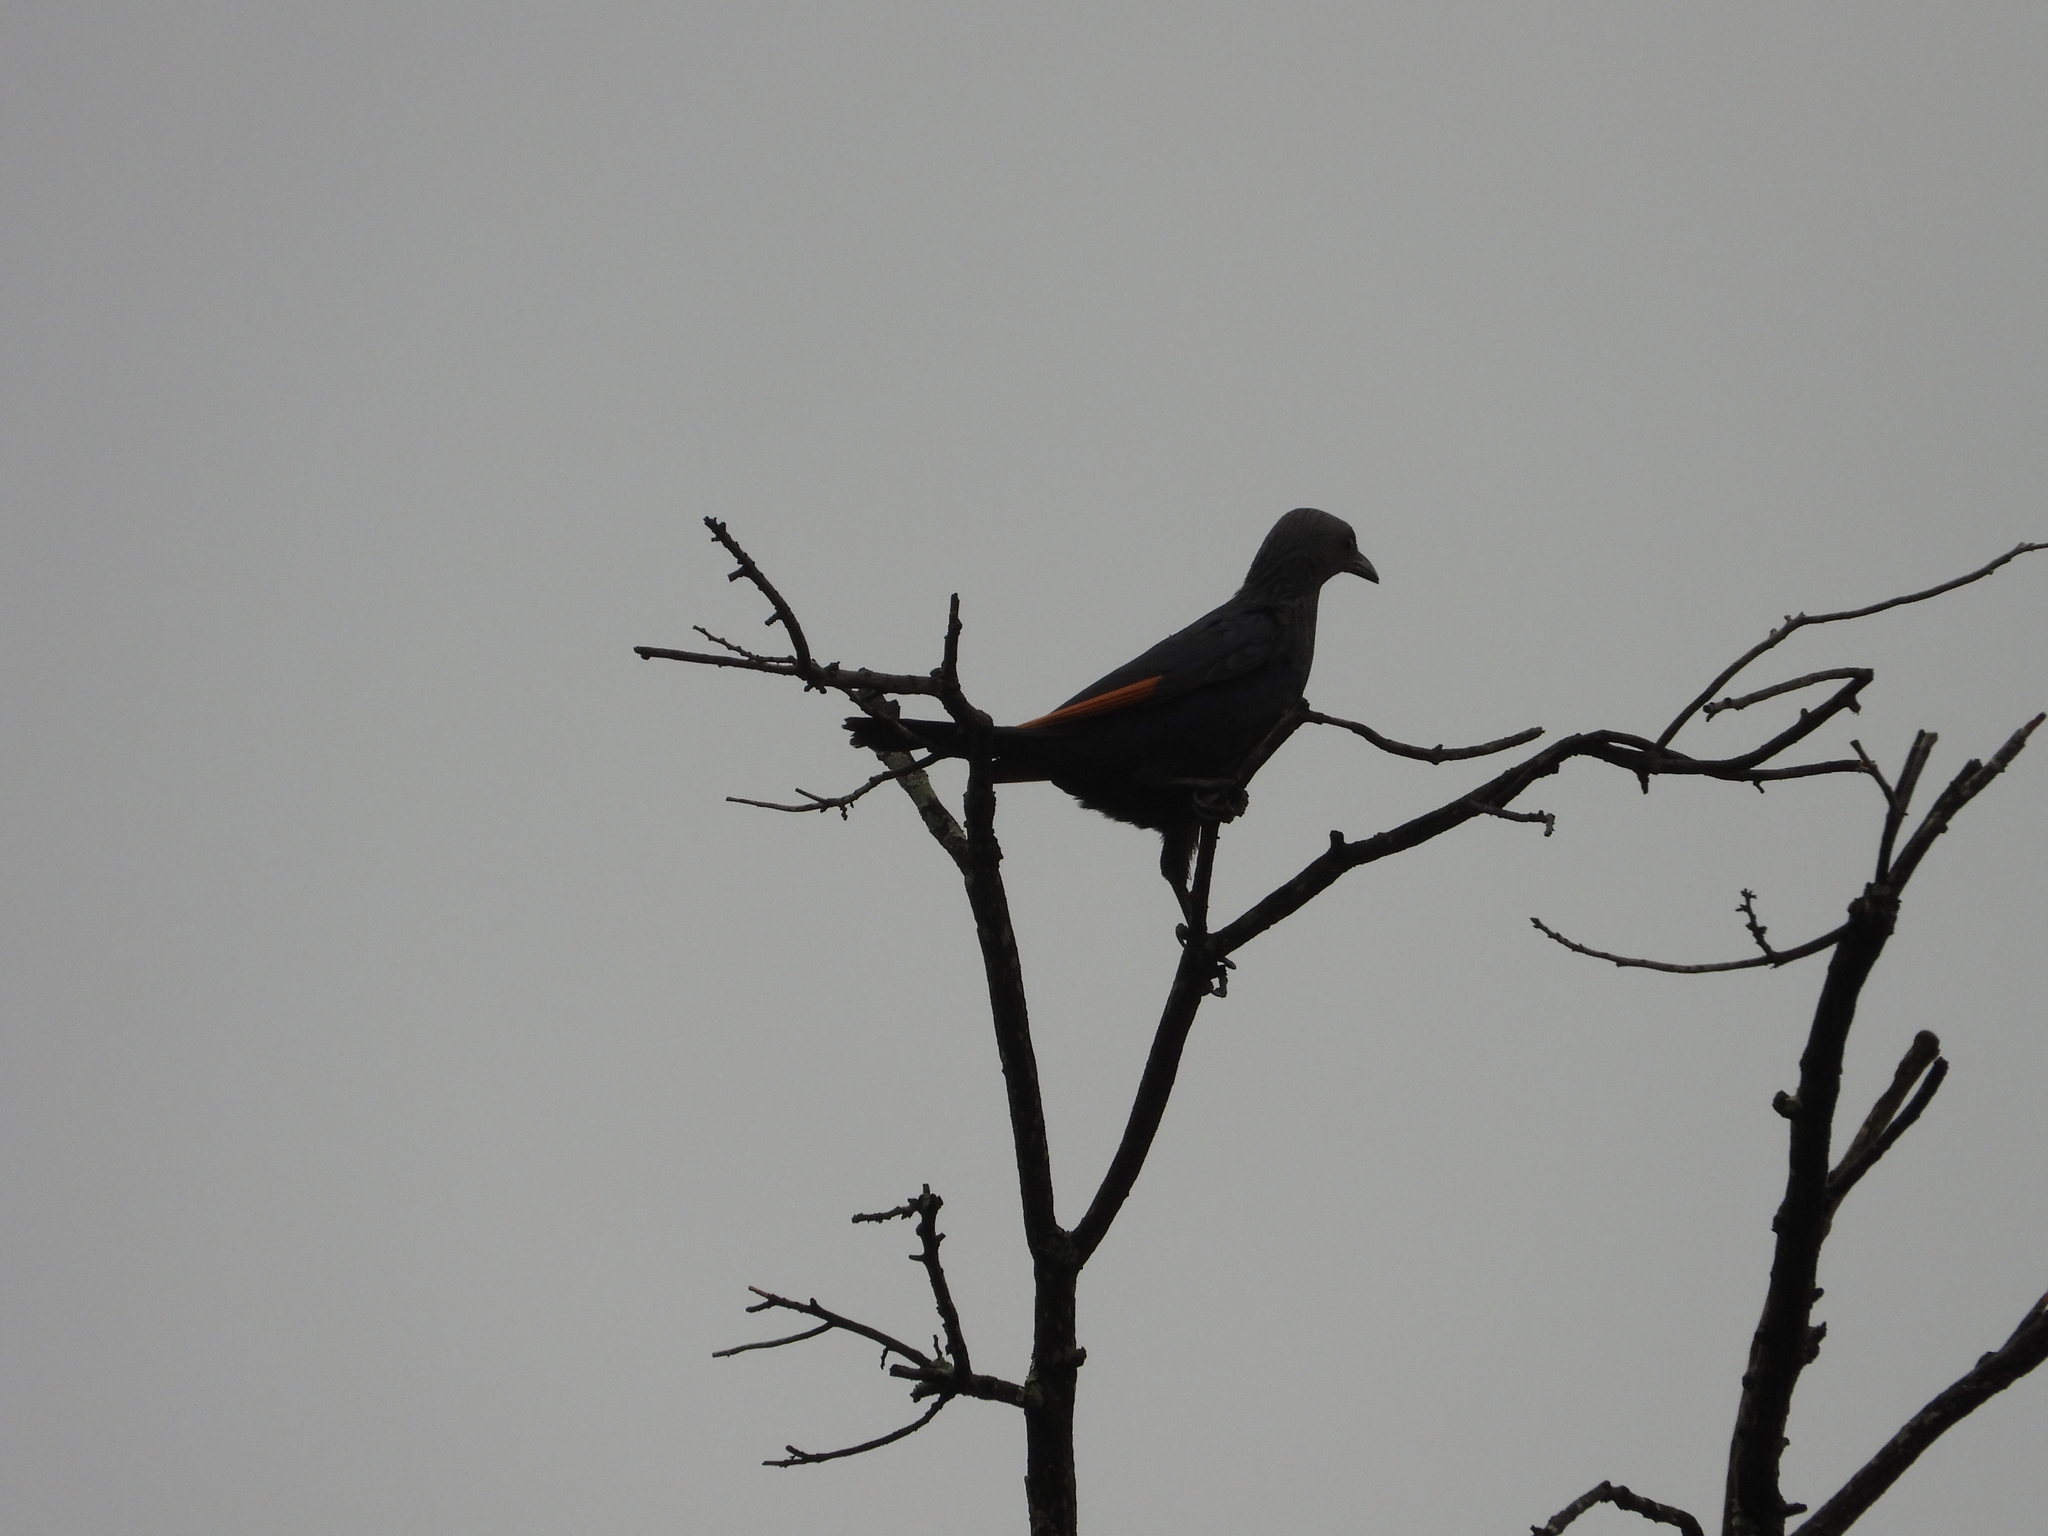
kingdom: Animalia
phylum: Chordata
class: Aves
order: Passeriformes
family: Sturnidae
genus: Onychognathus
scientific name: Onychognathus morio
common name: Red-winged starling
